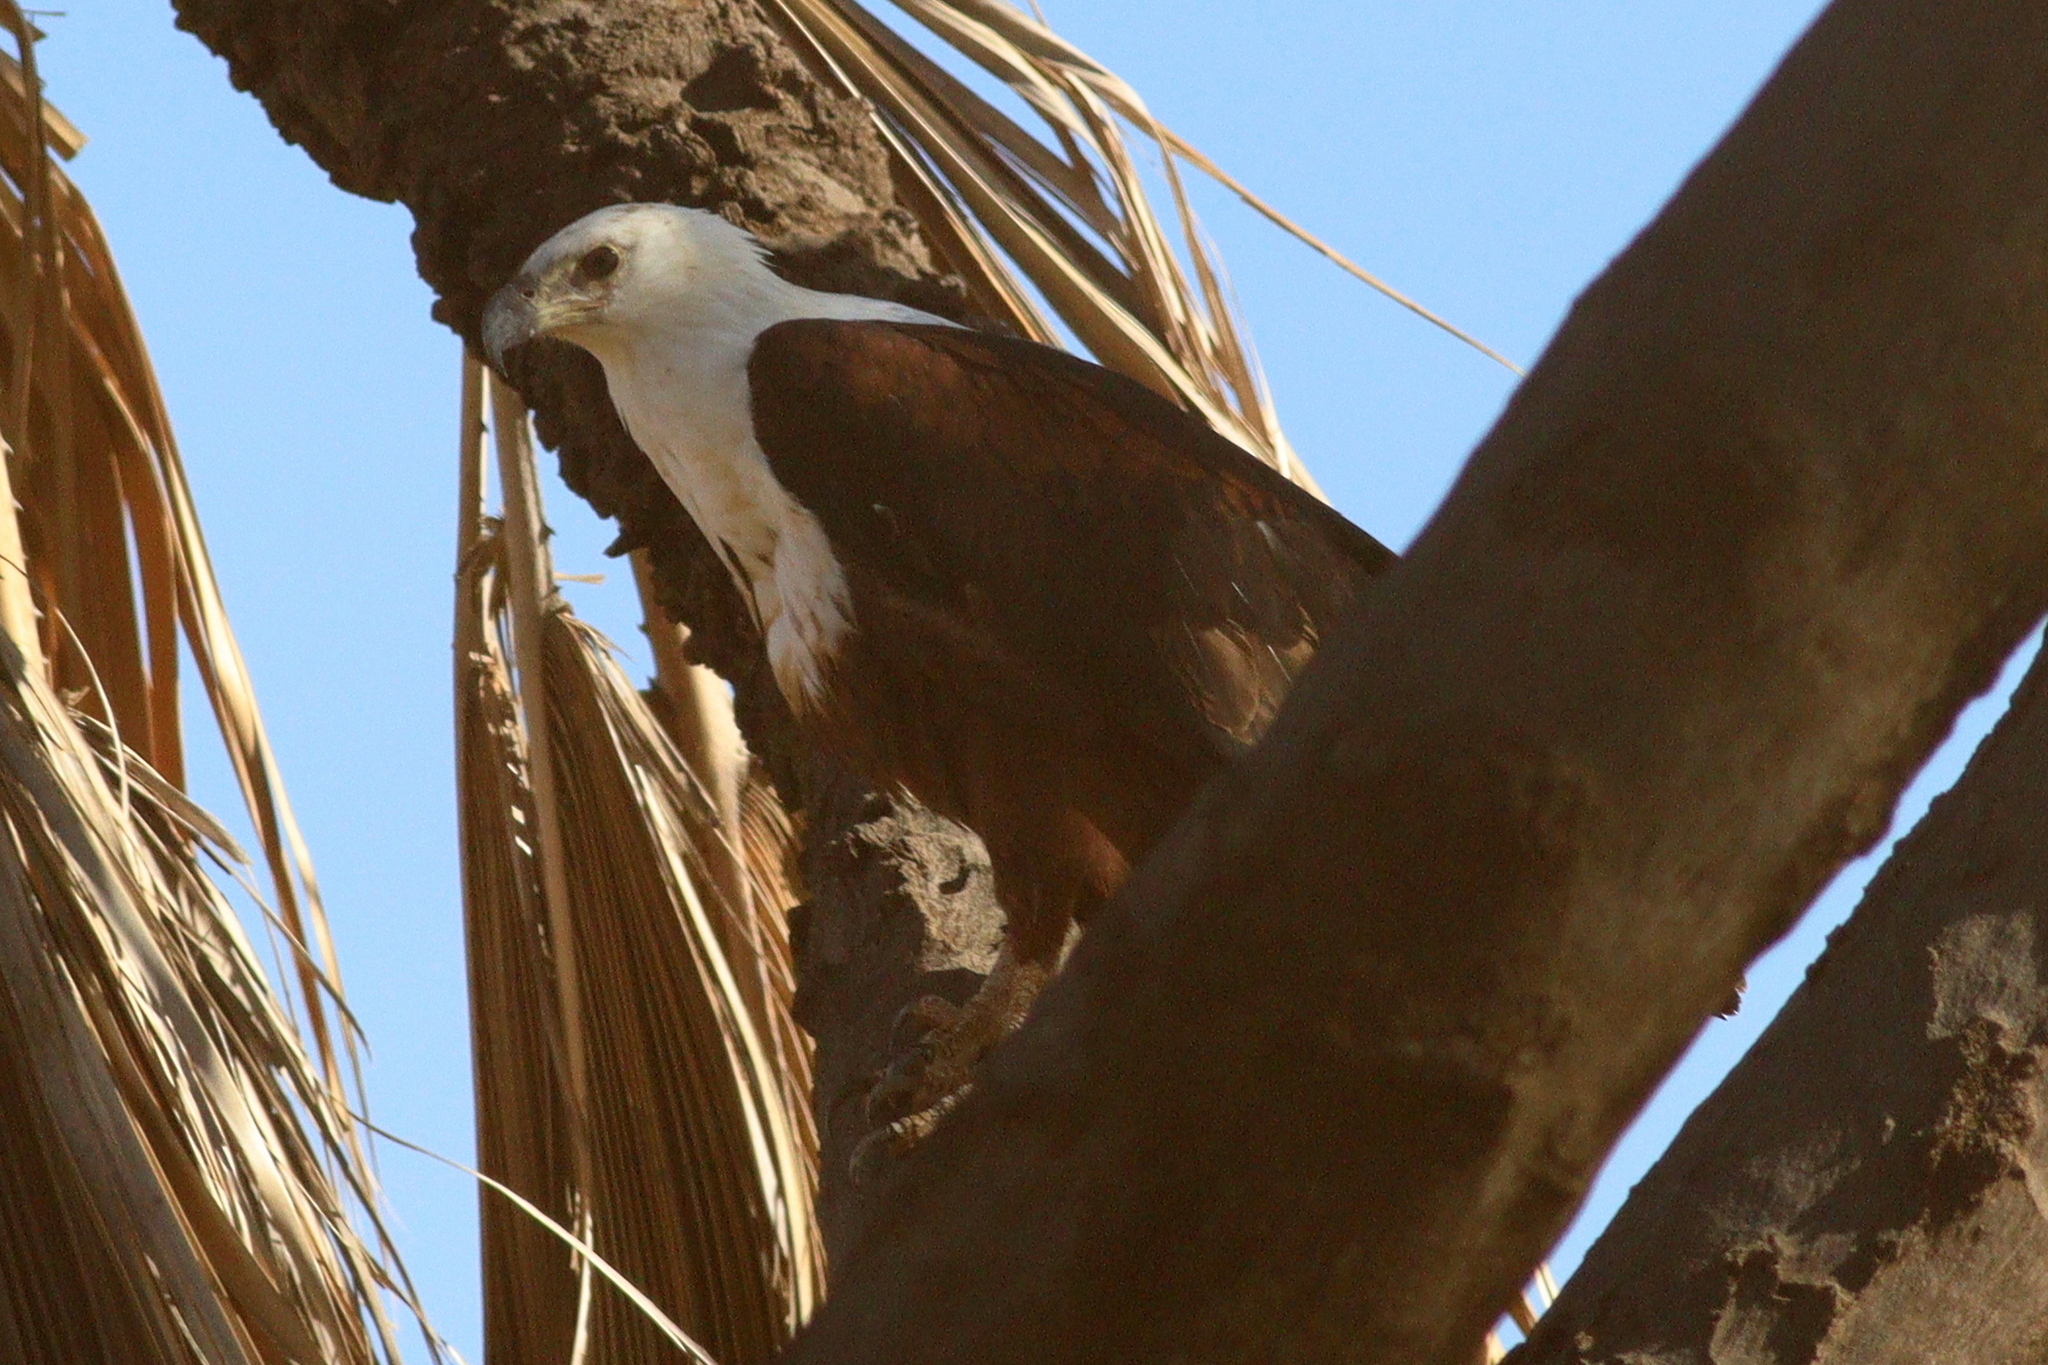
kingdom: Animalia
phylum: Chordata
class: Aves
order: Accipitriformes
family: Accipitridae
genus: Haliaeetus
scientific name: Haliaeetus vocifer
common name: African fish eagle
